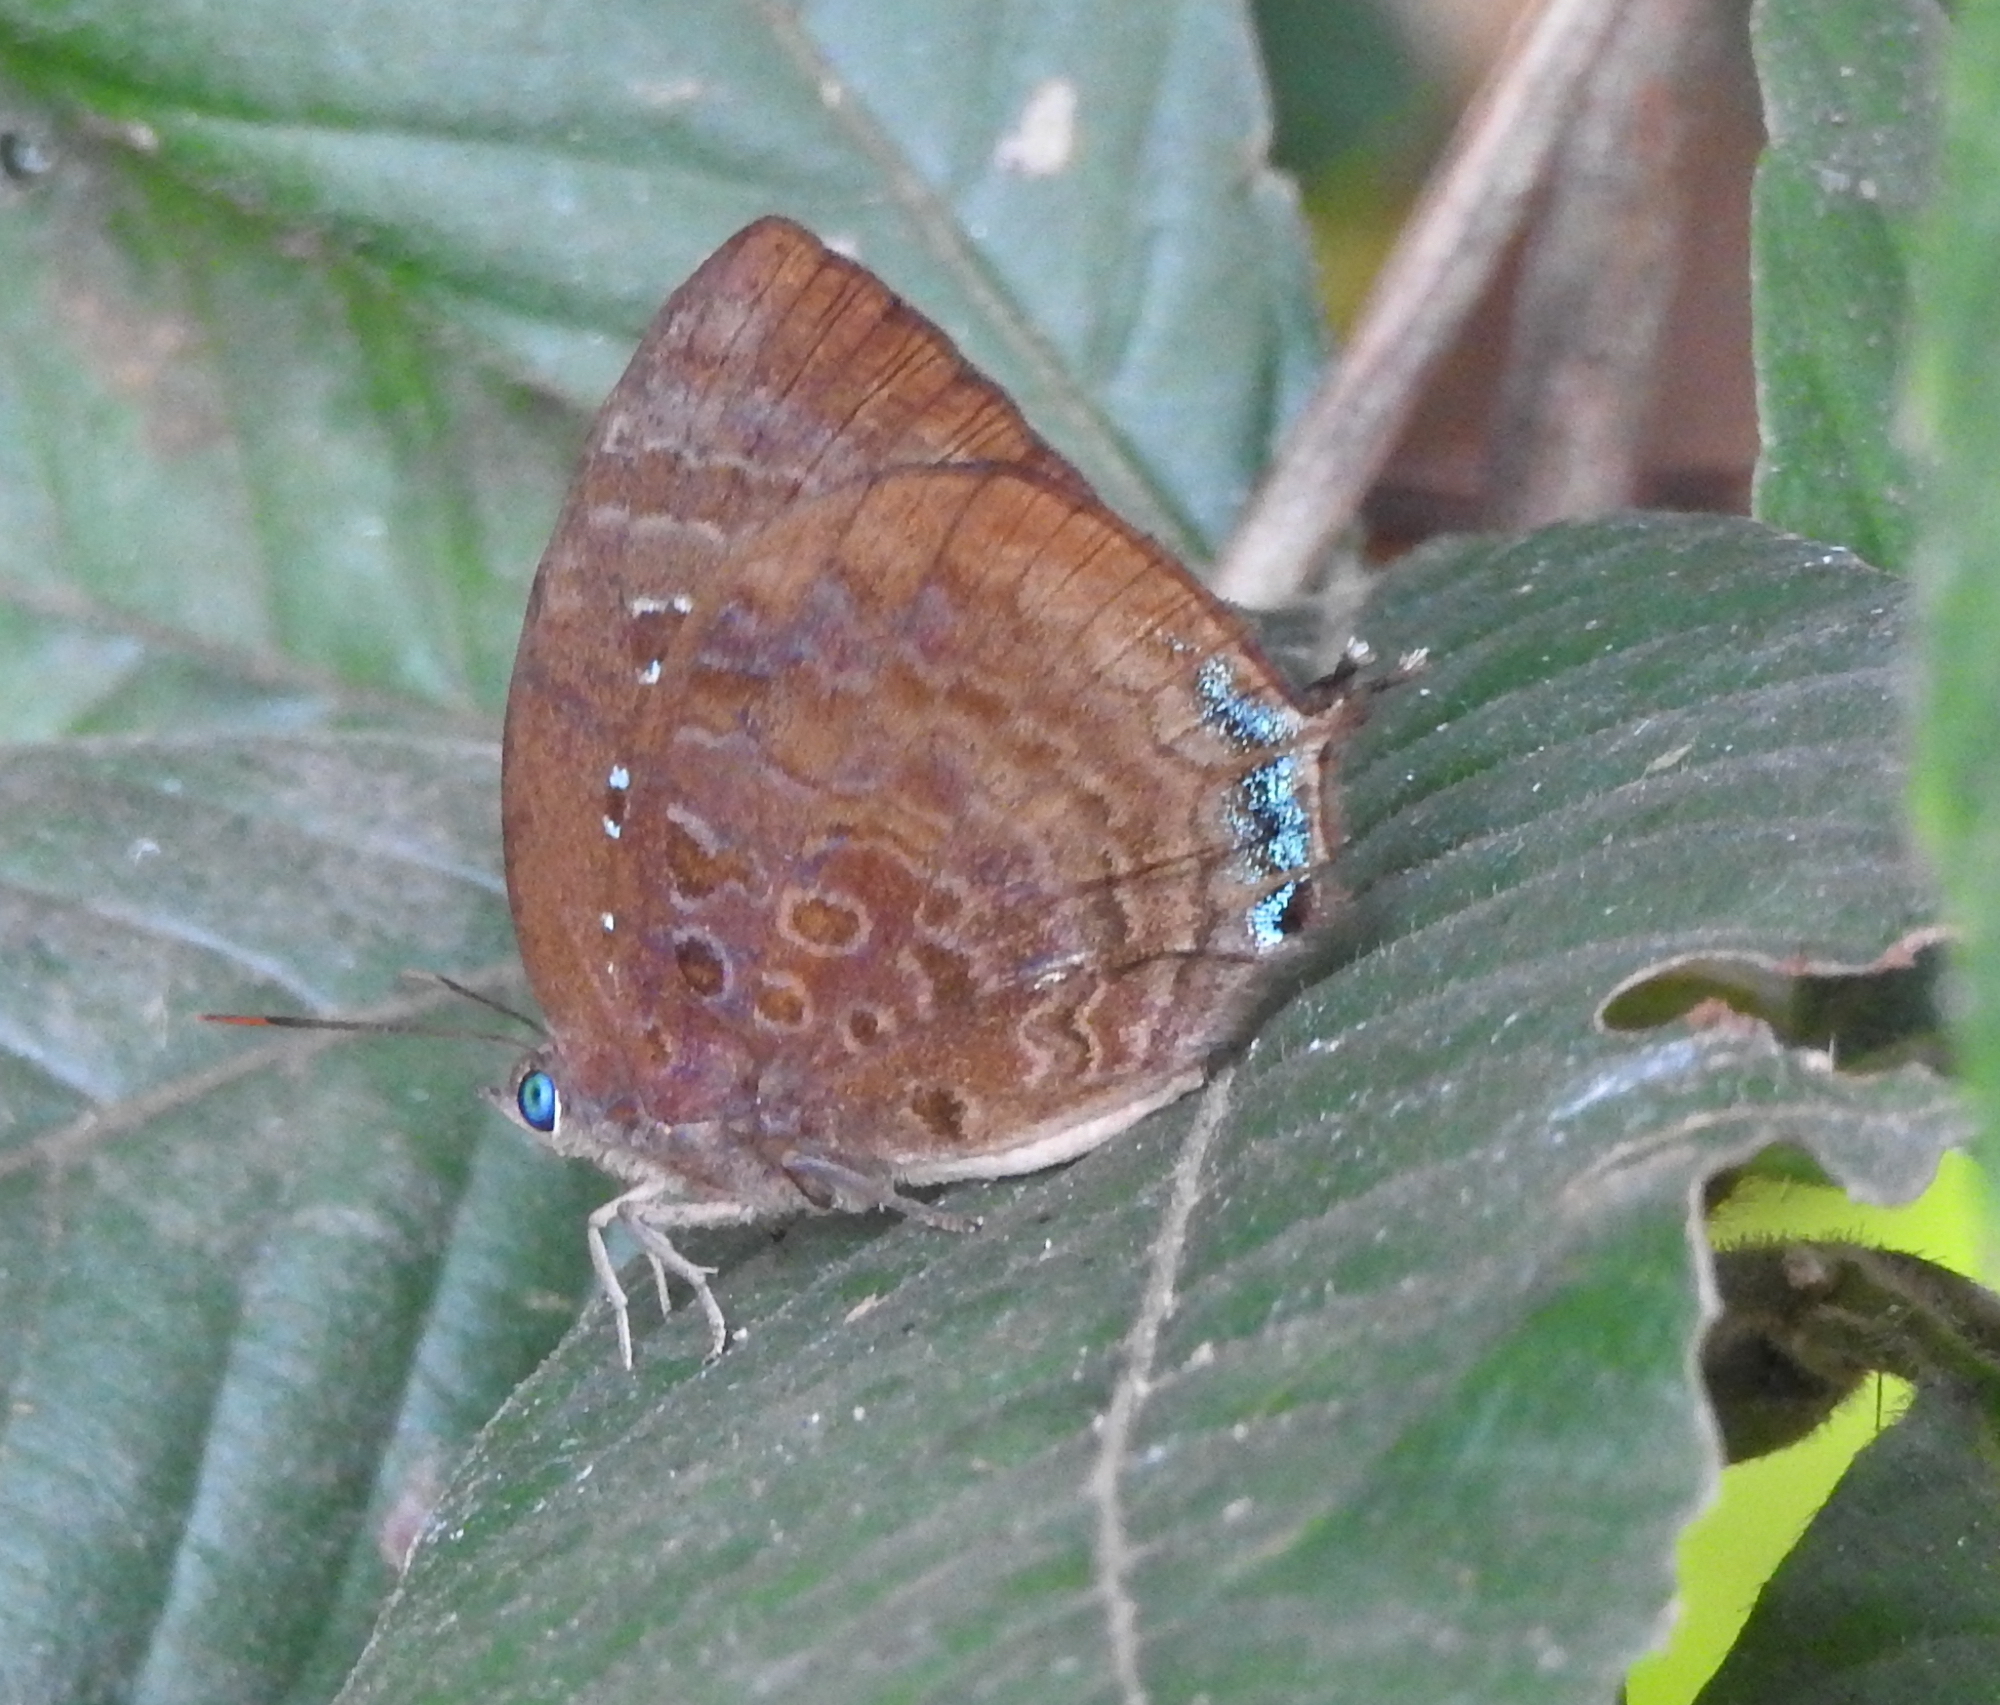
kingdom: Animalia
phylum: Arthropoda
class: Insecta
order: Lepidoptera
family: Lycaenidae
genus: Arhopala
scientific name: Arhopala centaurus
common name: Dull oak-blue
